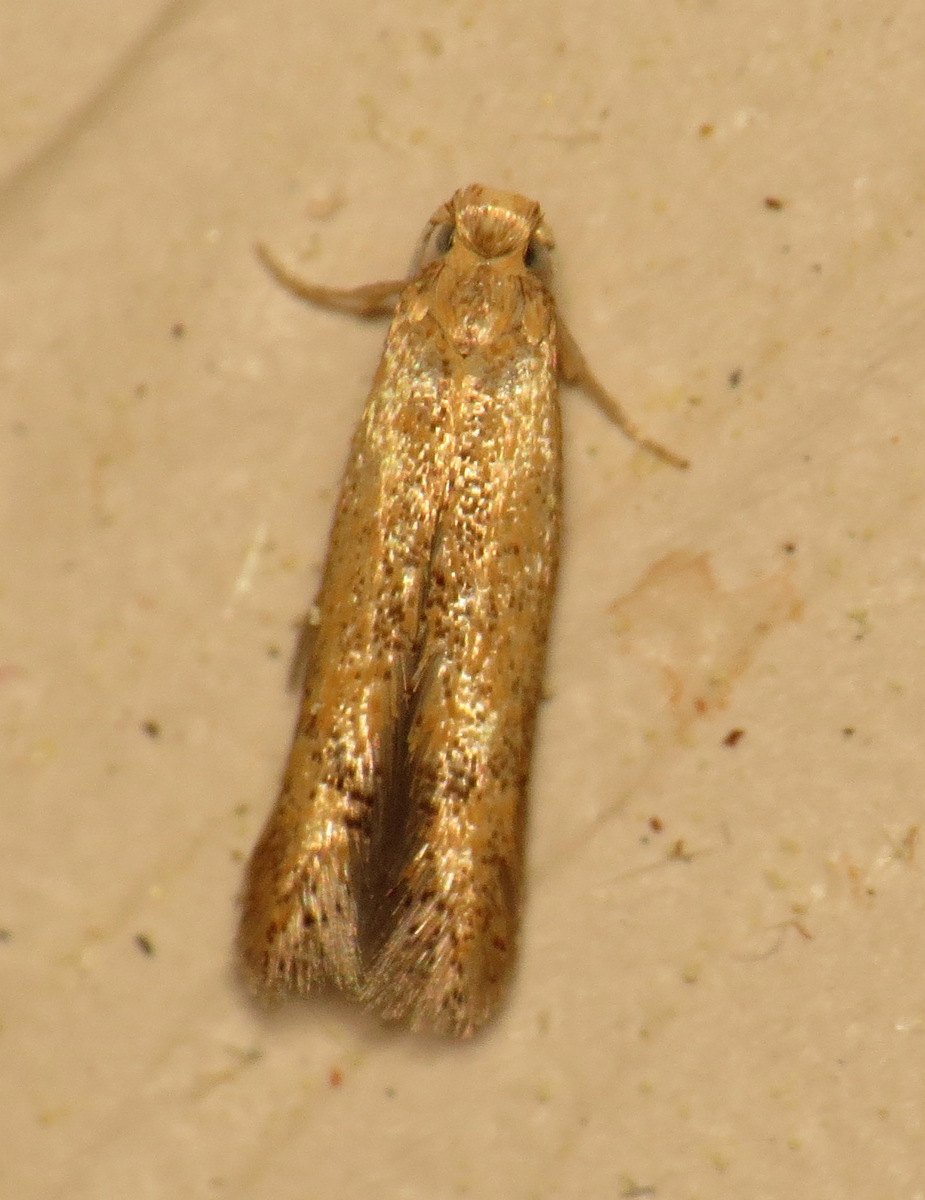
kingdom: Animalia
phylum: Arthropoda
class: Insecta
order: Lepidoptera
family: Tischeriidae
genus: Tischeria
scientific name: Tischeria quercitella
